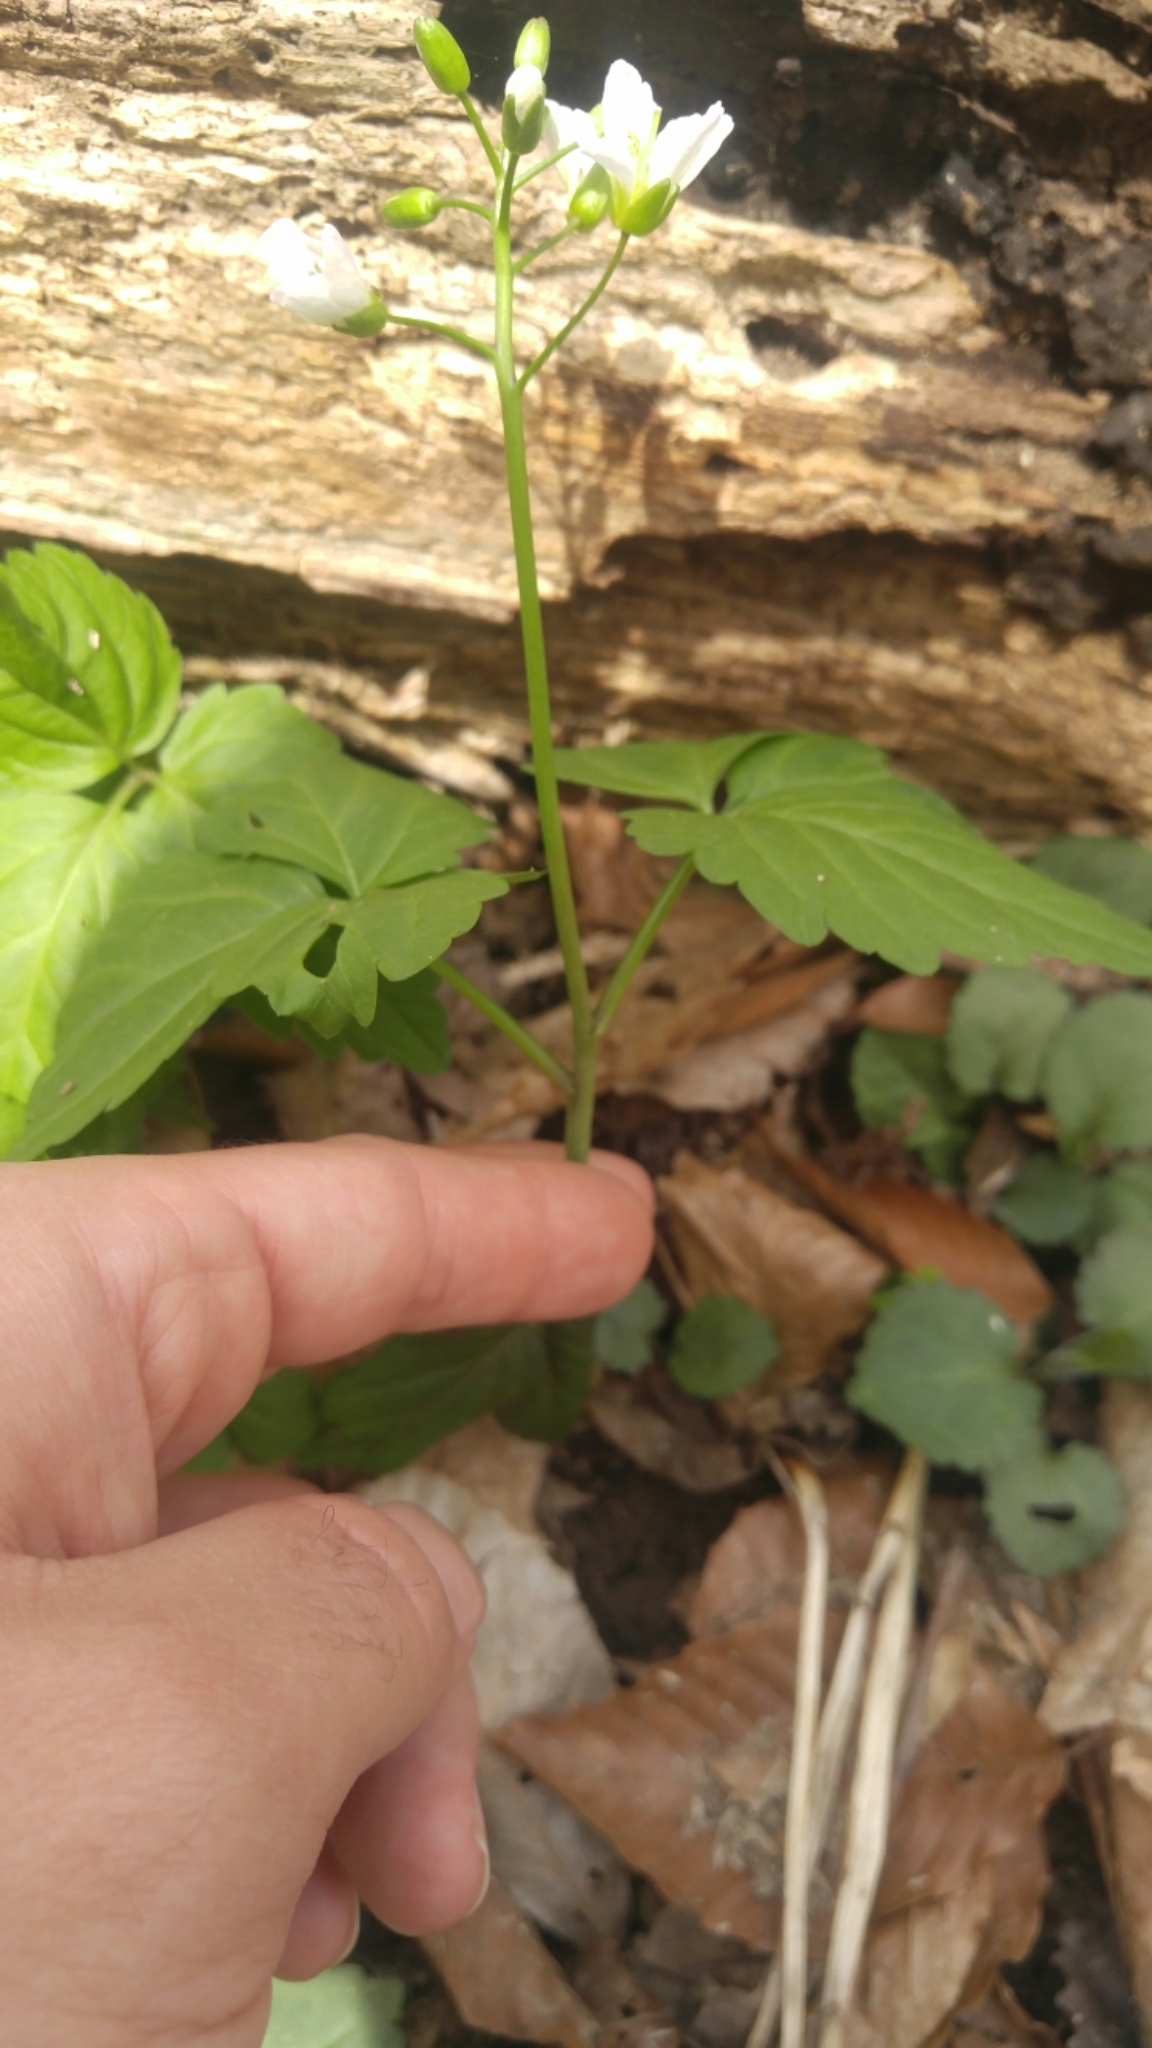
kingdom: Plantae
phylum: Tracheophyta
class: Magnoliopsida
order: Brassicales
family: Brassicaceae
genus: Cardamine
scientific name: Cardamine diphylla
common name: Broad-leaved toothwort
